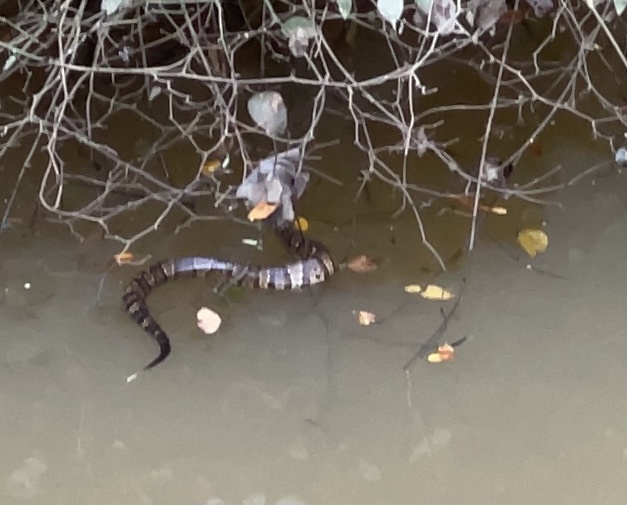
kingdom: Animalia
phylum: Chordata
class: Squamata
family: Viperidae
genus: Agkistrodon
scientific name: Agkistrodon piscivorus
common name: Cottonmouth
